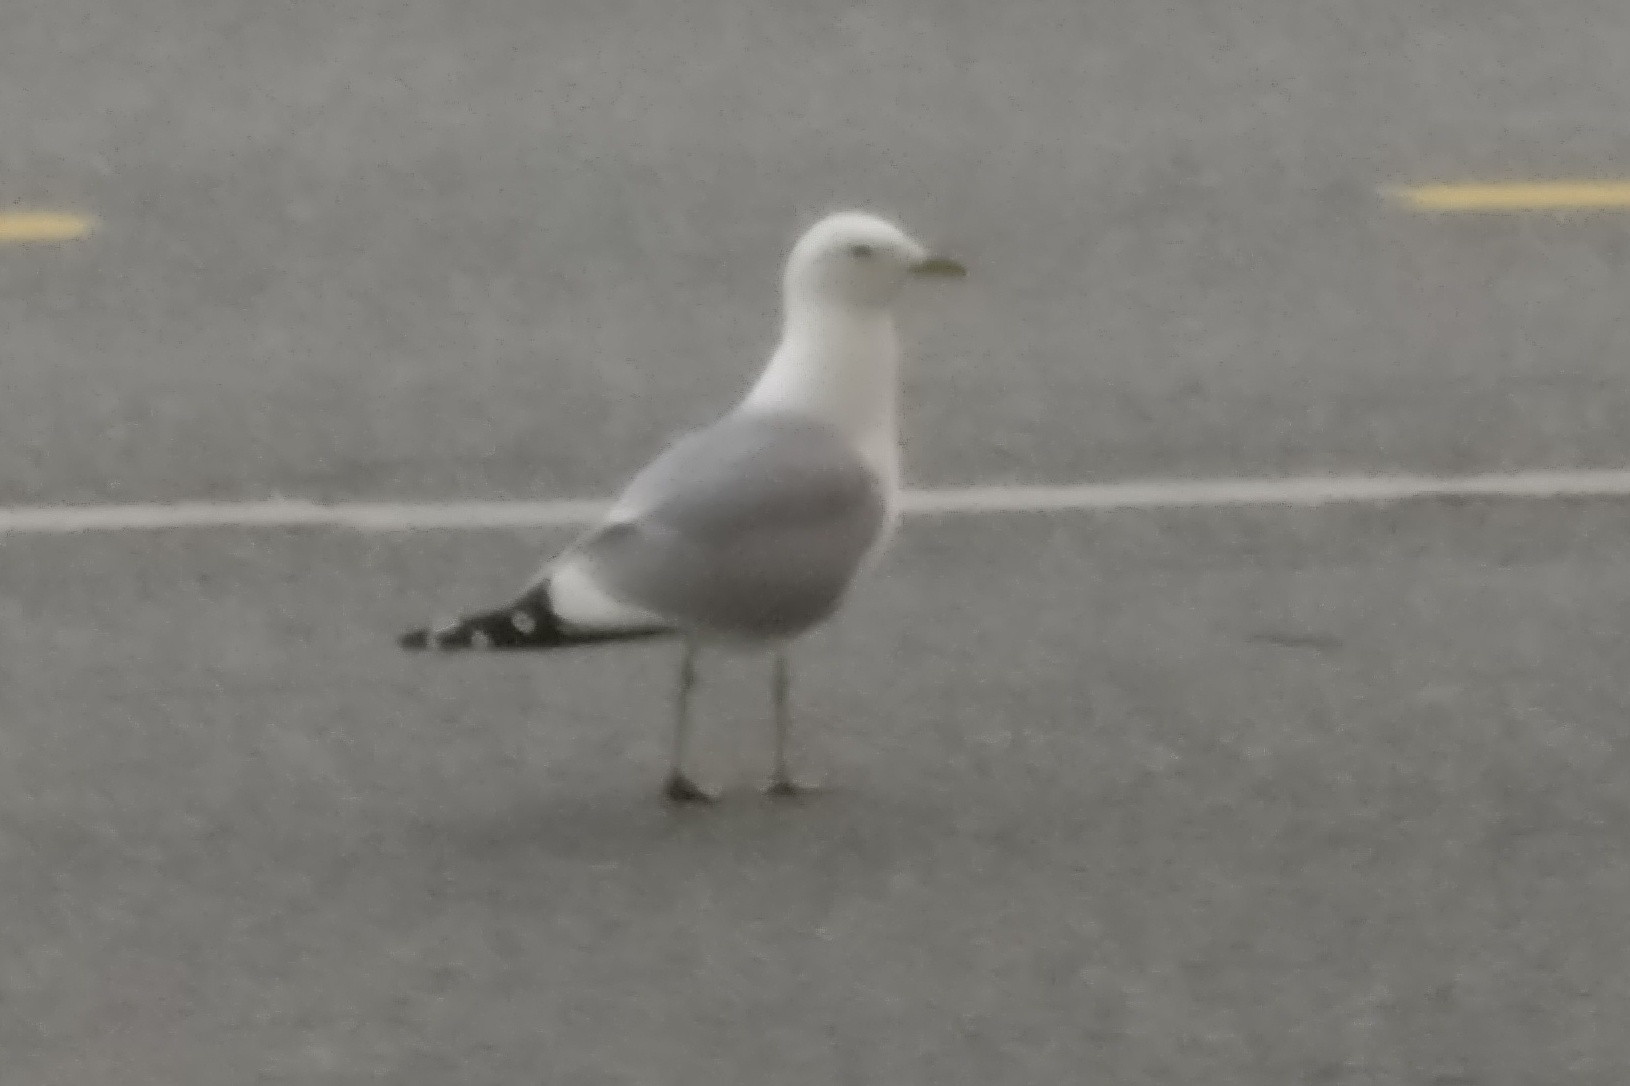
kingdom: Animalia
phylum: Chordata
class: Aves
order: Charadriiformes
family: Laridae
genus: Larus
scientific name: Larus canus
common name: Mew gull
